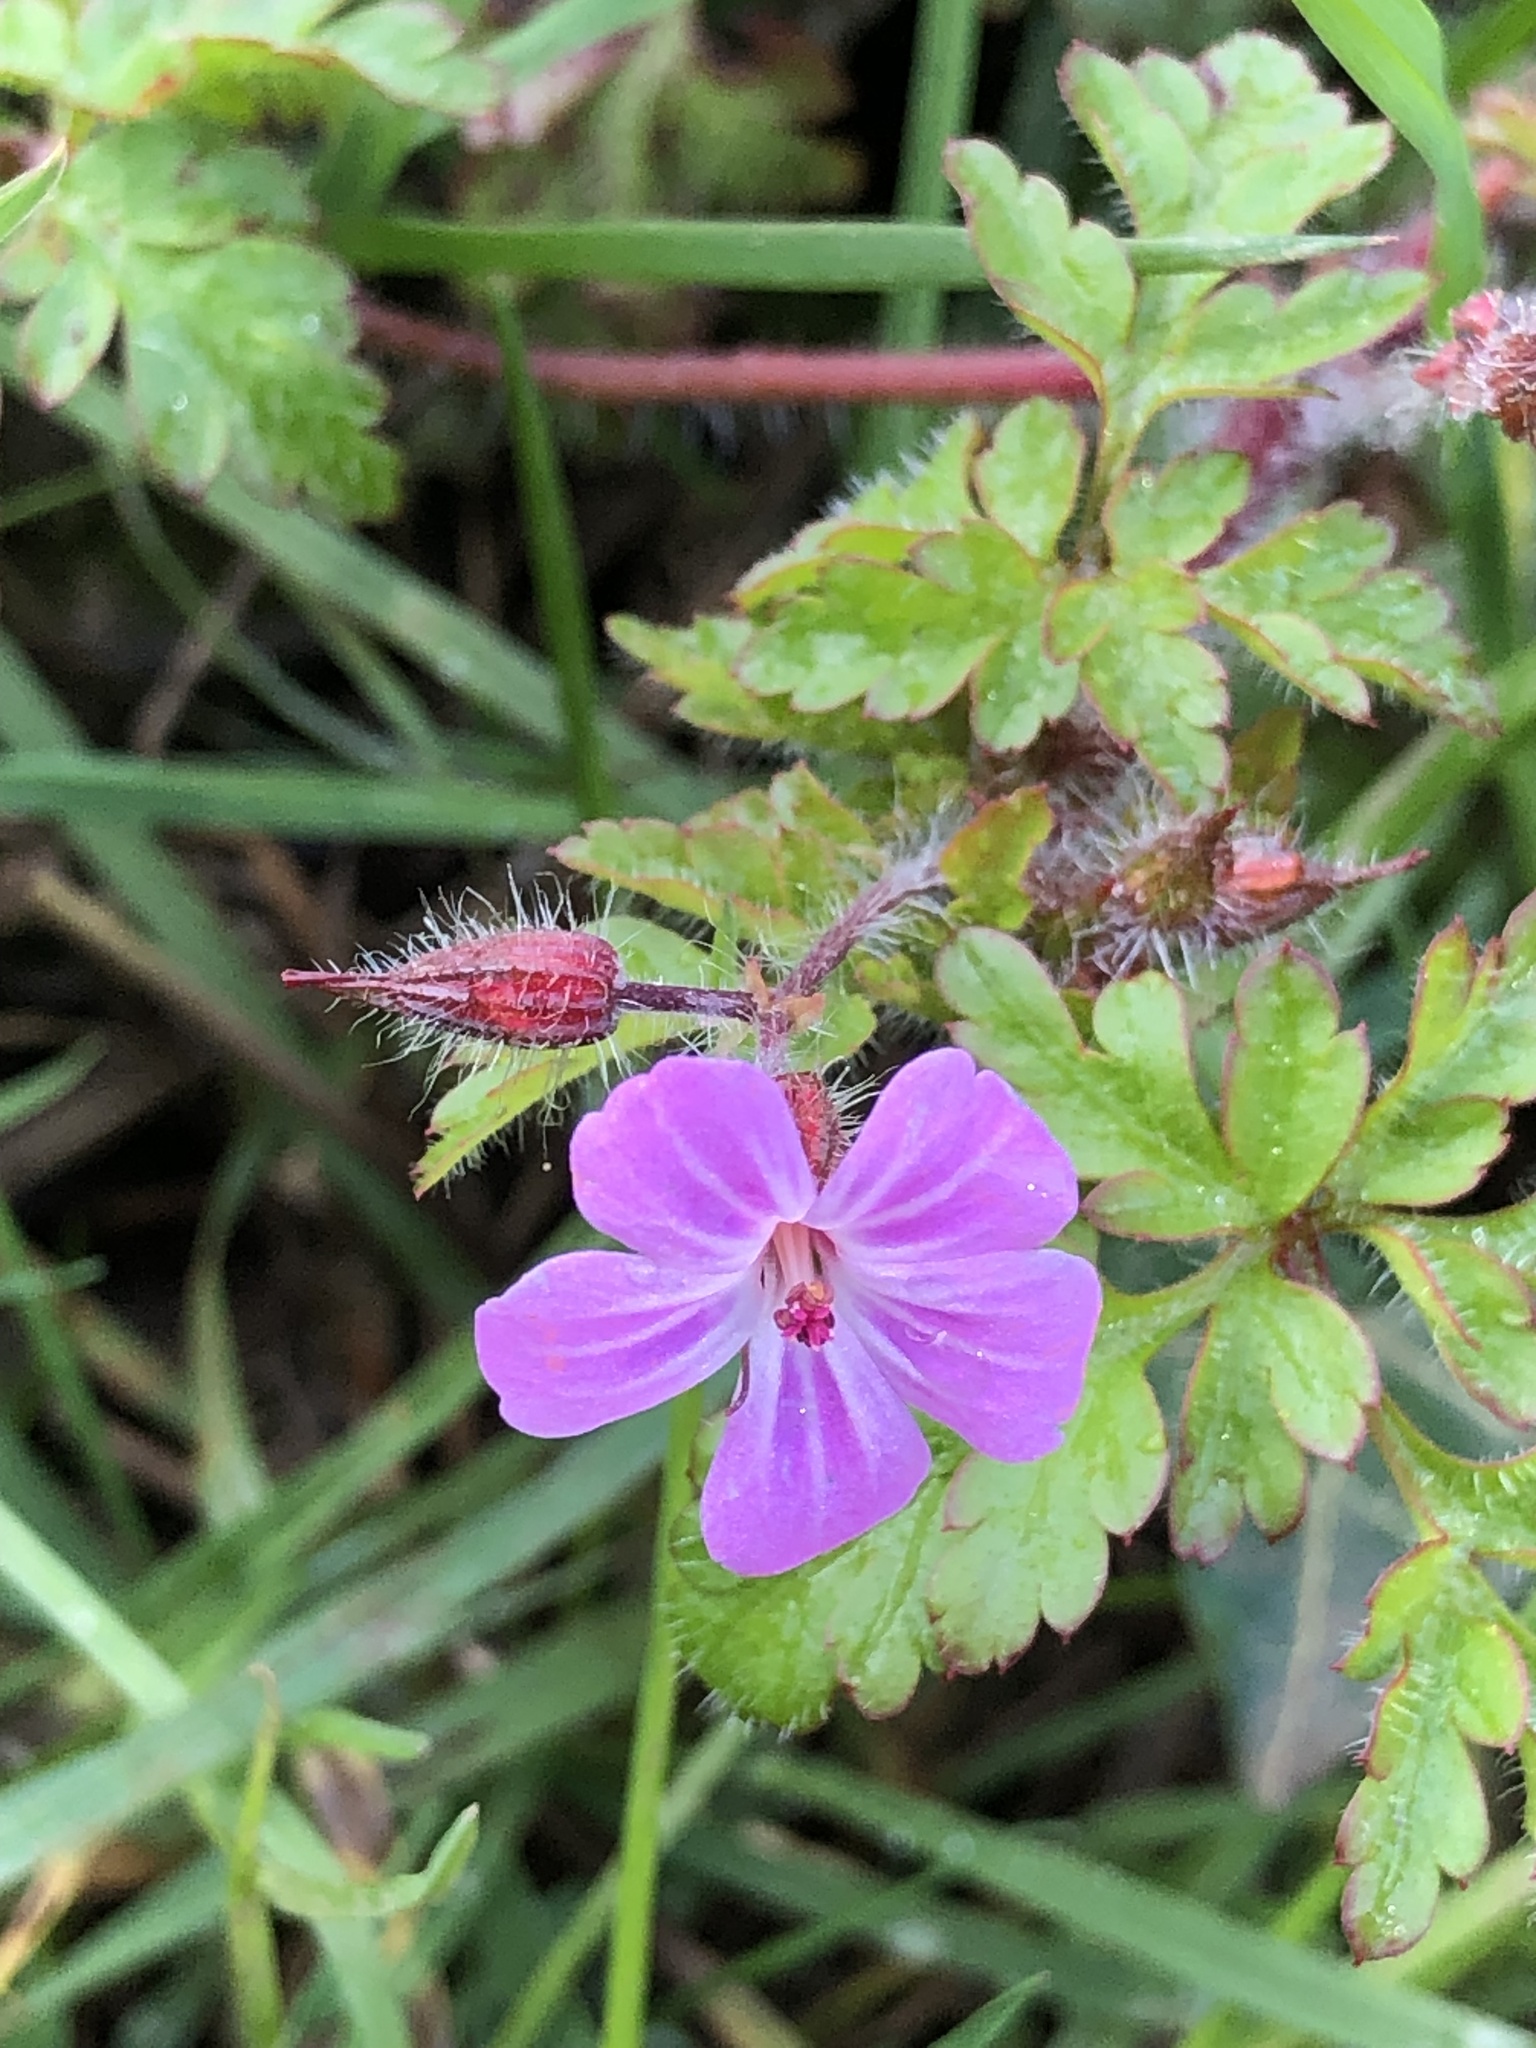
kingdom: Plantae
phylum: Tracheophyta
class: Magnoliopsida
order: Geraniales
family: Geraniaceae
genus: Geranium
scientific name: Geranium robertianum
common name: Herb-robert
